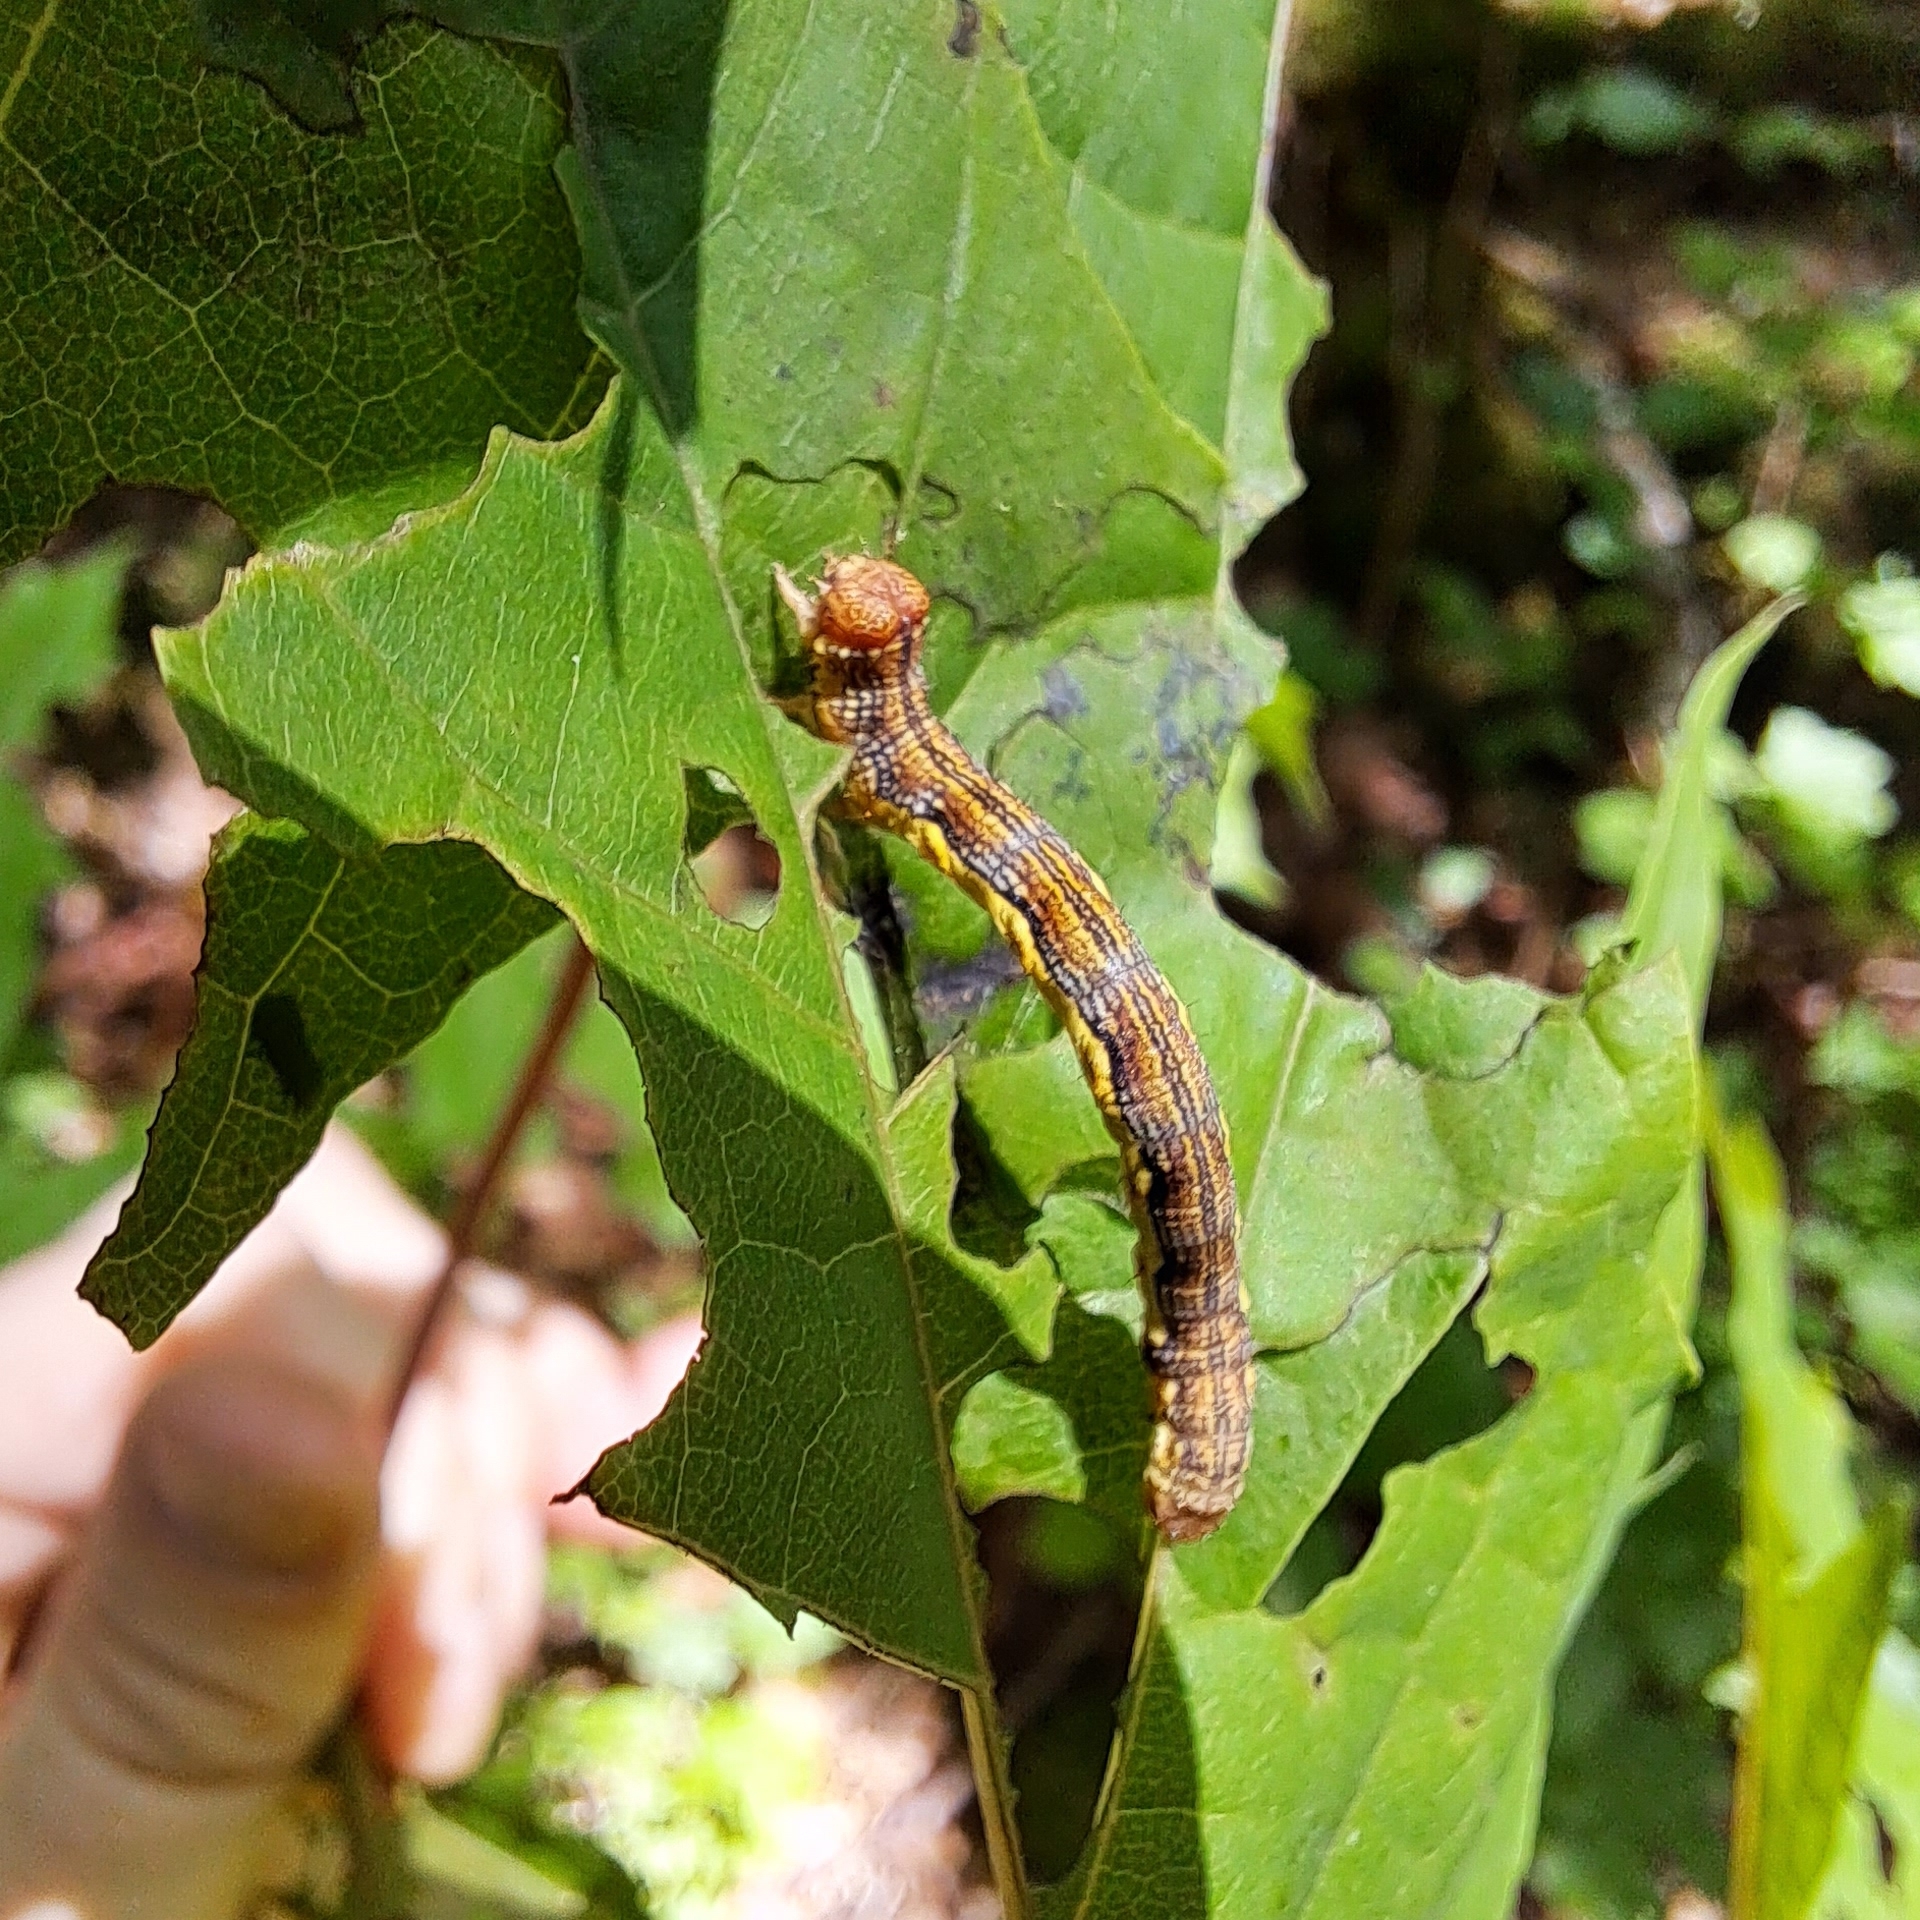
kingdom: Animalia
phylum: Arthropoda
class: Insecta
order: Lepidoptera
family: Geometridae
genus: Erannis
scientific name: Erannis defoliaria
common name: Mottled umber
